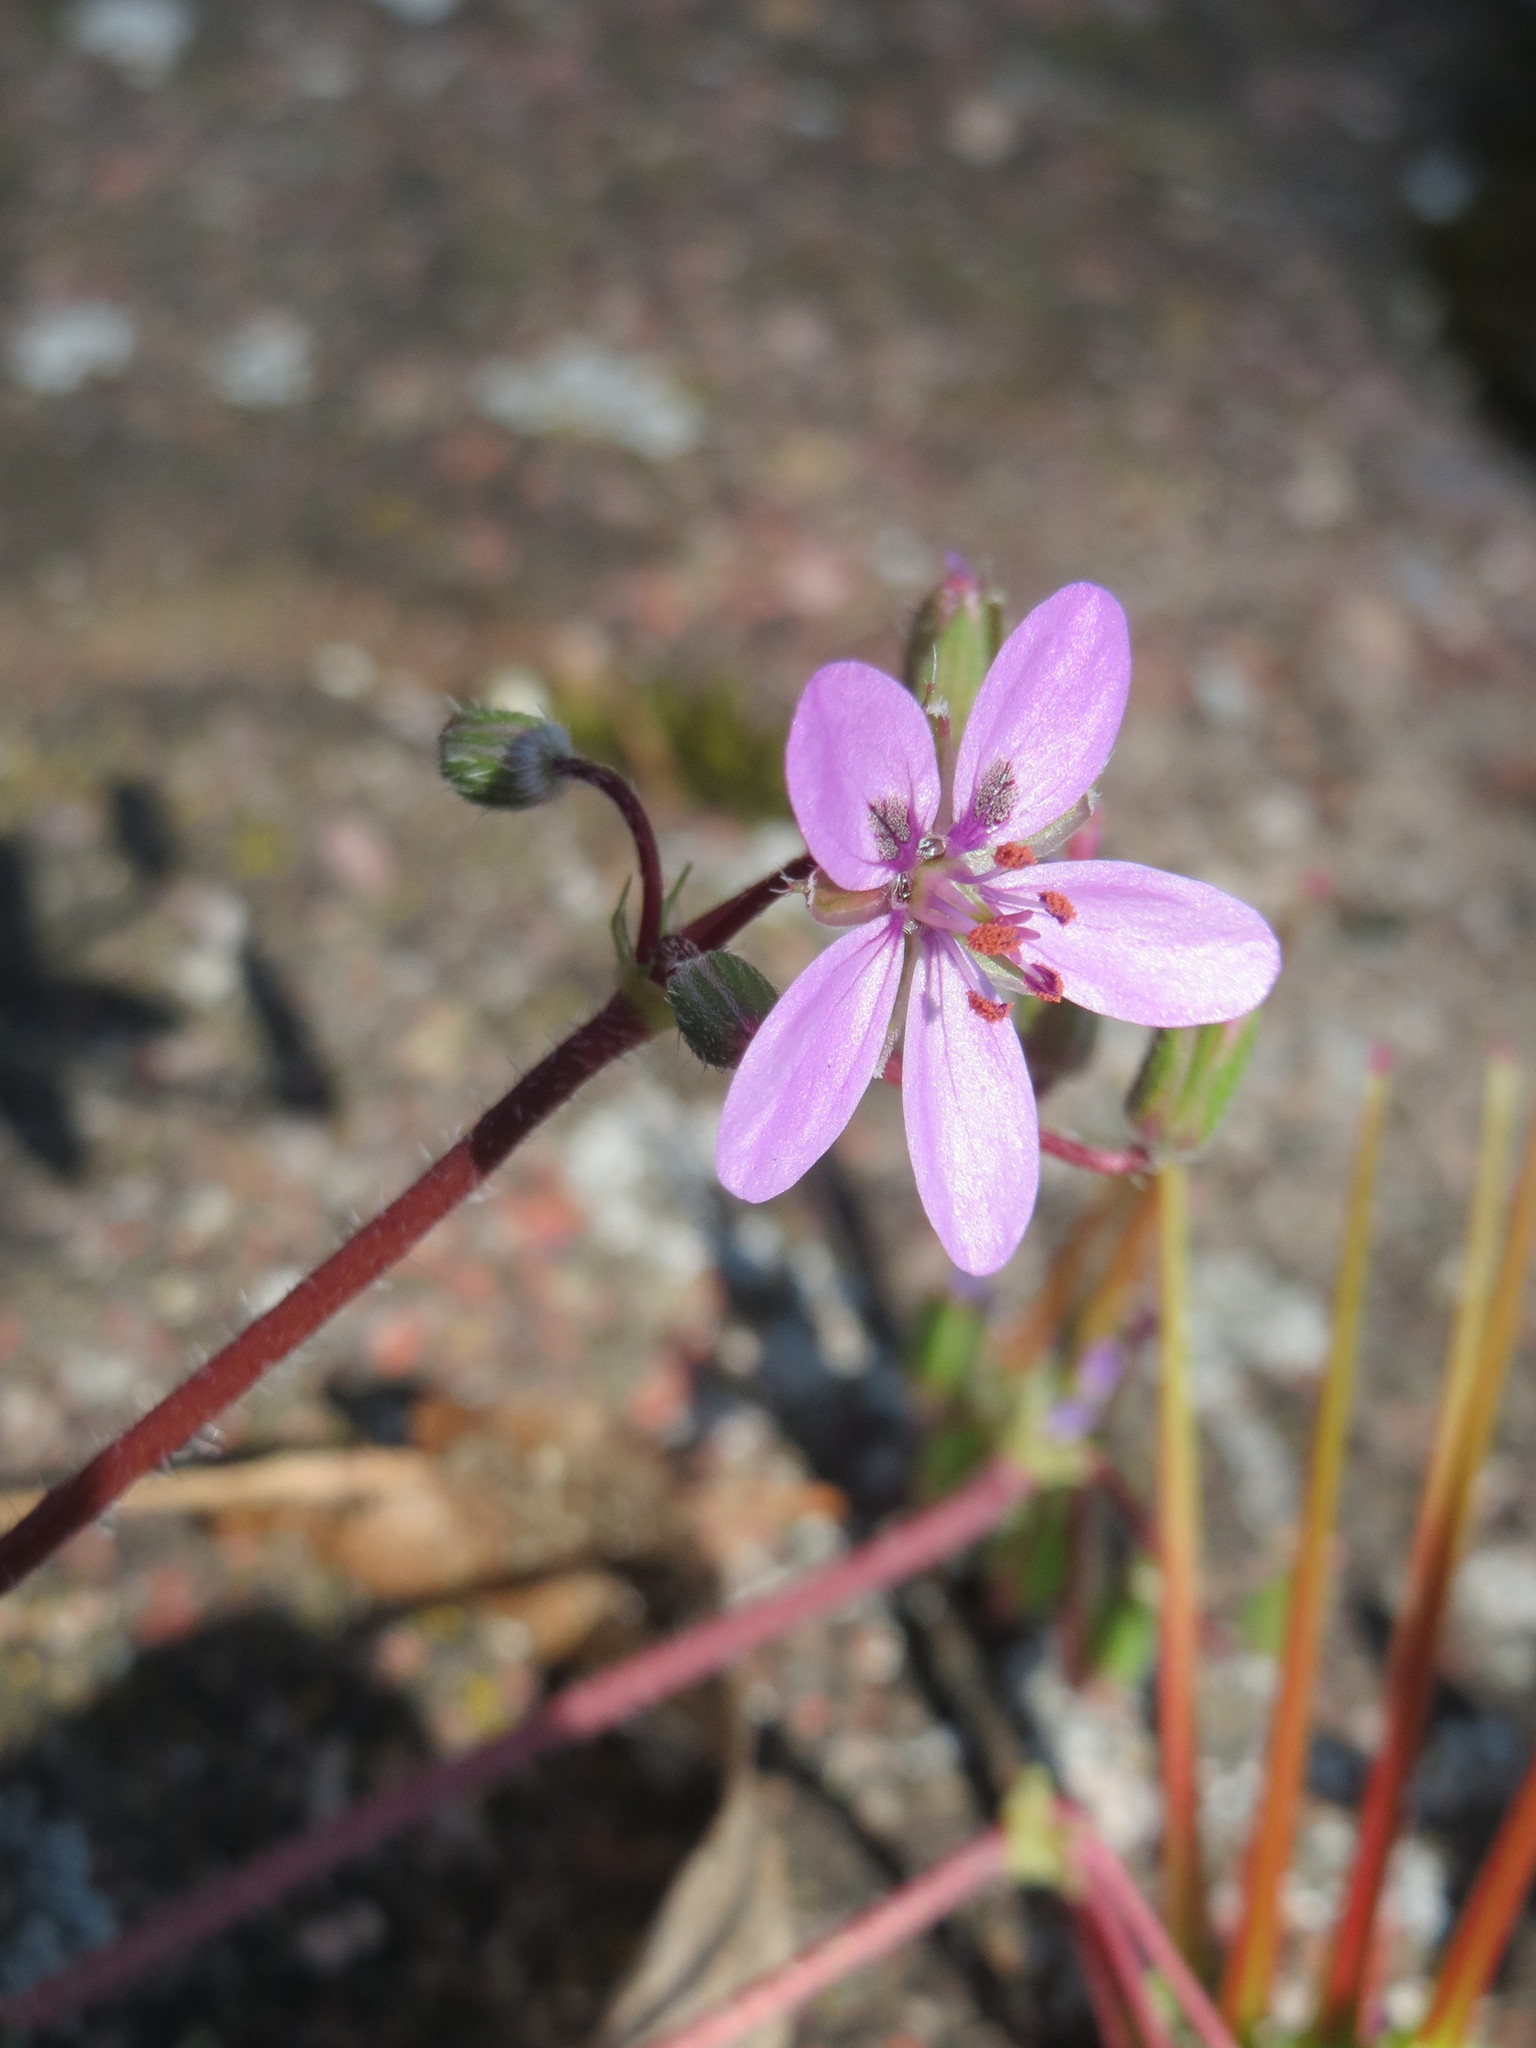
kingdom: Plantae
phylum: Tracheophyta
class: Magnoliopsida
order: Geraniales
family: Geraniaceae
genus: Erodium
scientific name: Erodium cicutarium
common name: Common stork's-bill
